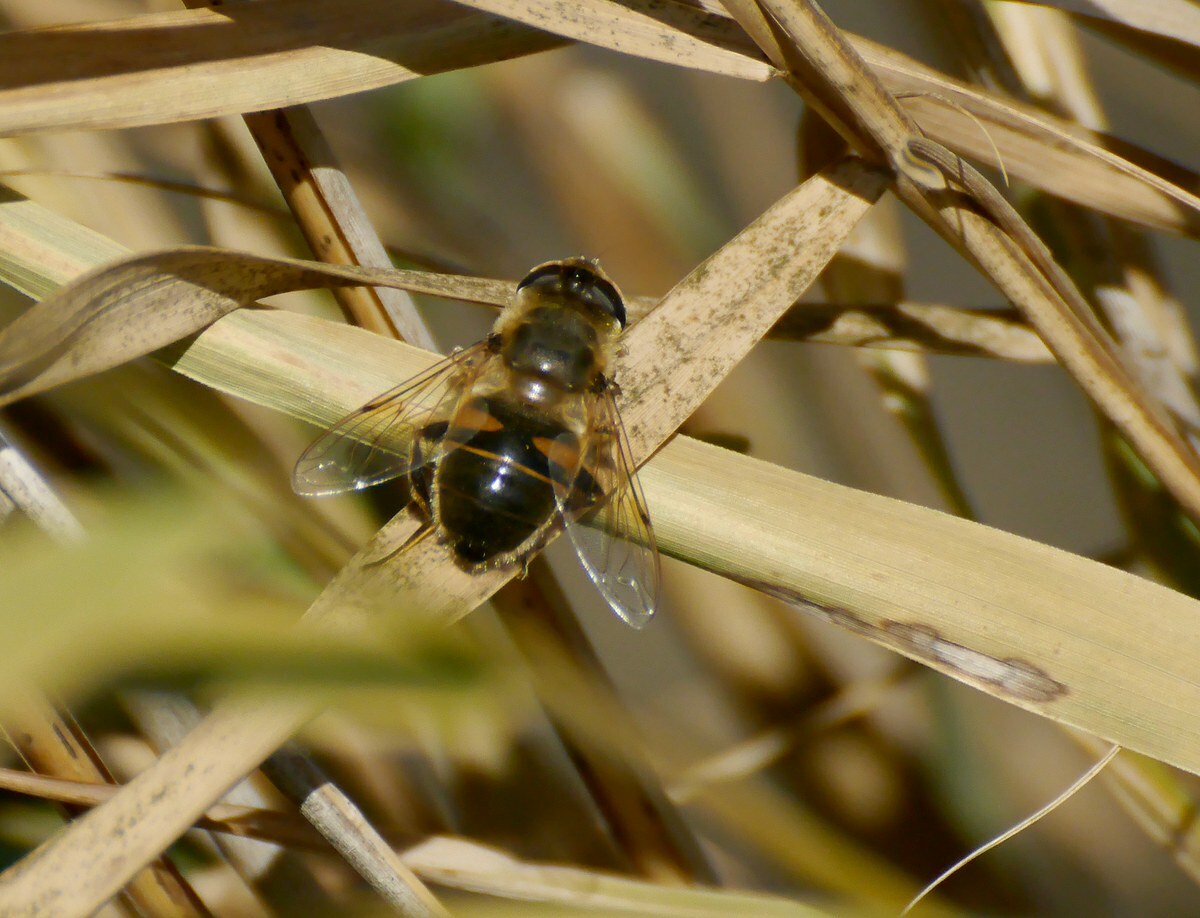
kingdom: Animalia
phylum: Arthropoda
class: Insecta
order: Diptera
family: Syrphidae
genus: Eristalis
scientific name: Eristalis tenax
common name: Drone fly
